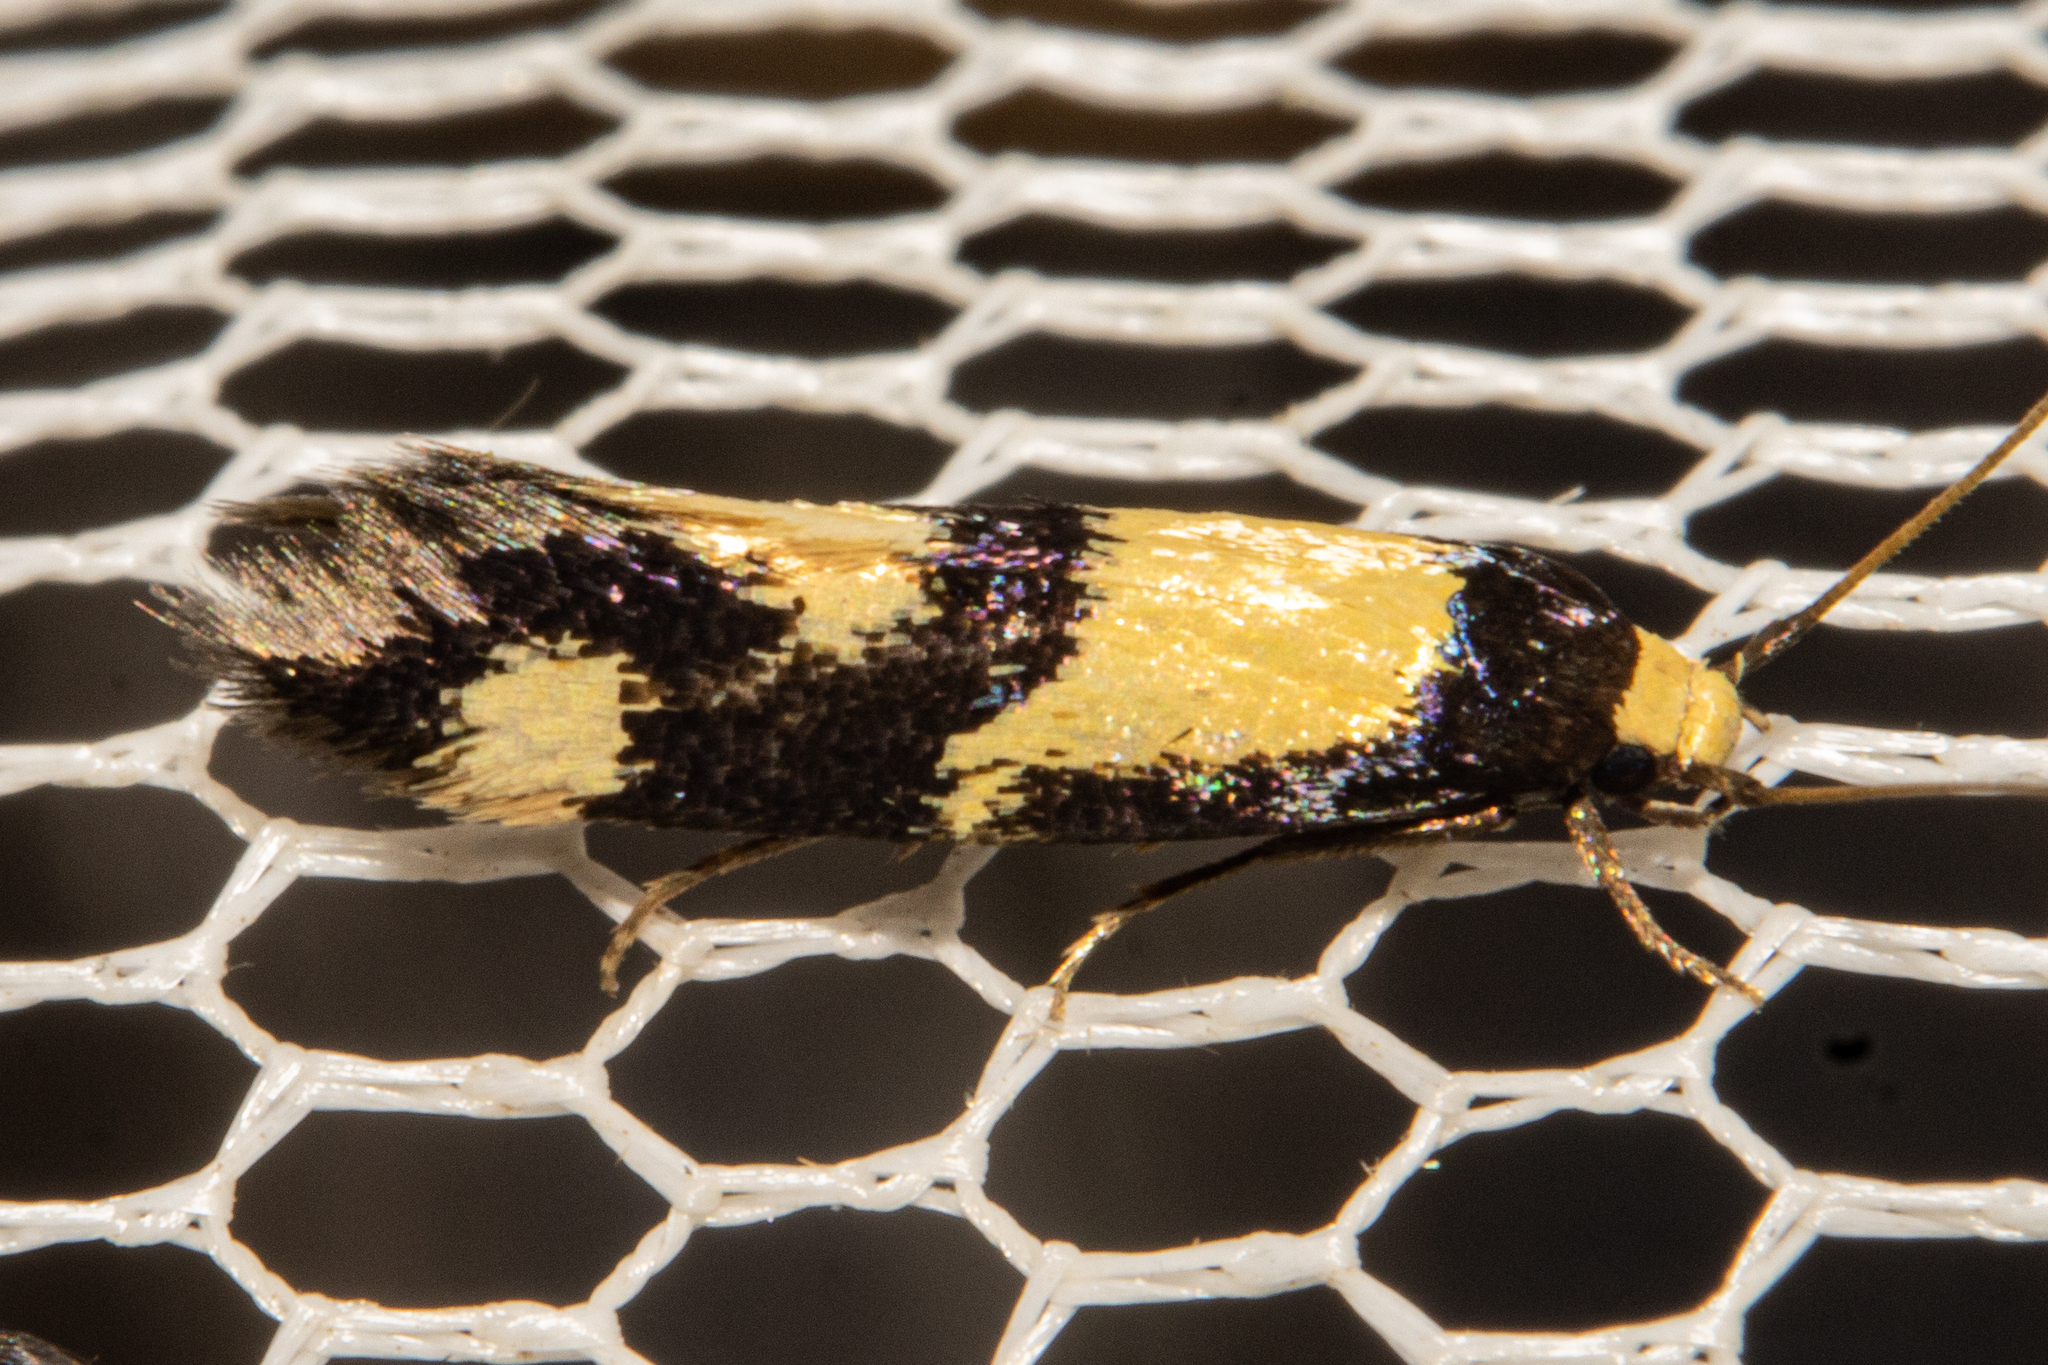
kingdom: Animalia
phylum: Arthropoda
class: Insecta
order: Lepidoptera
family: Tineidae
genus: Opogona
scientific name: Opogona comptella
